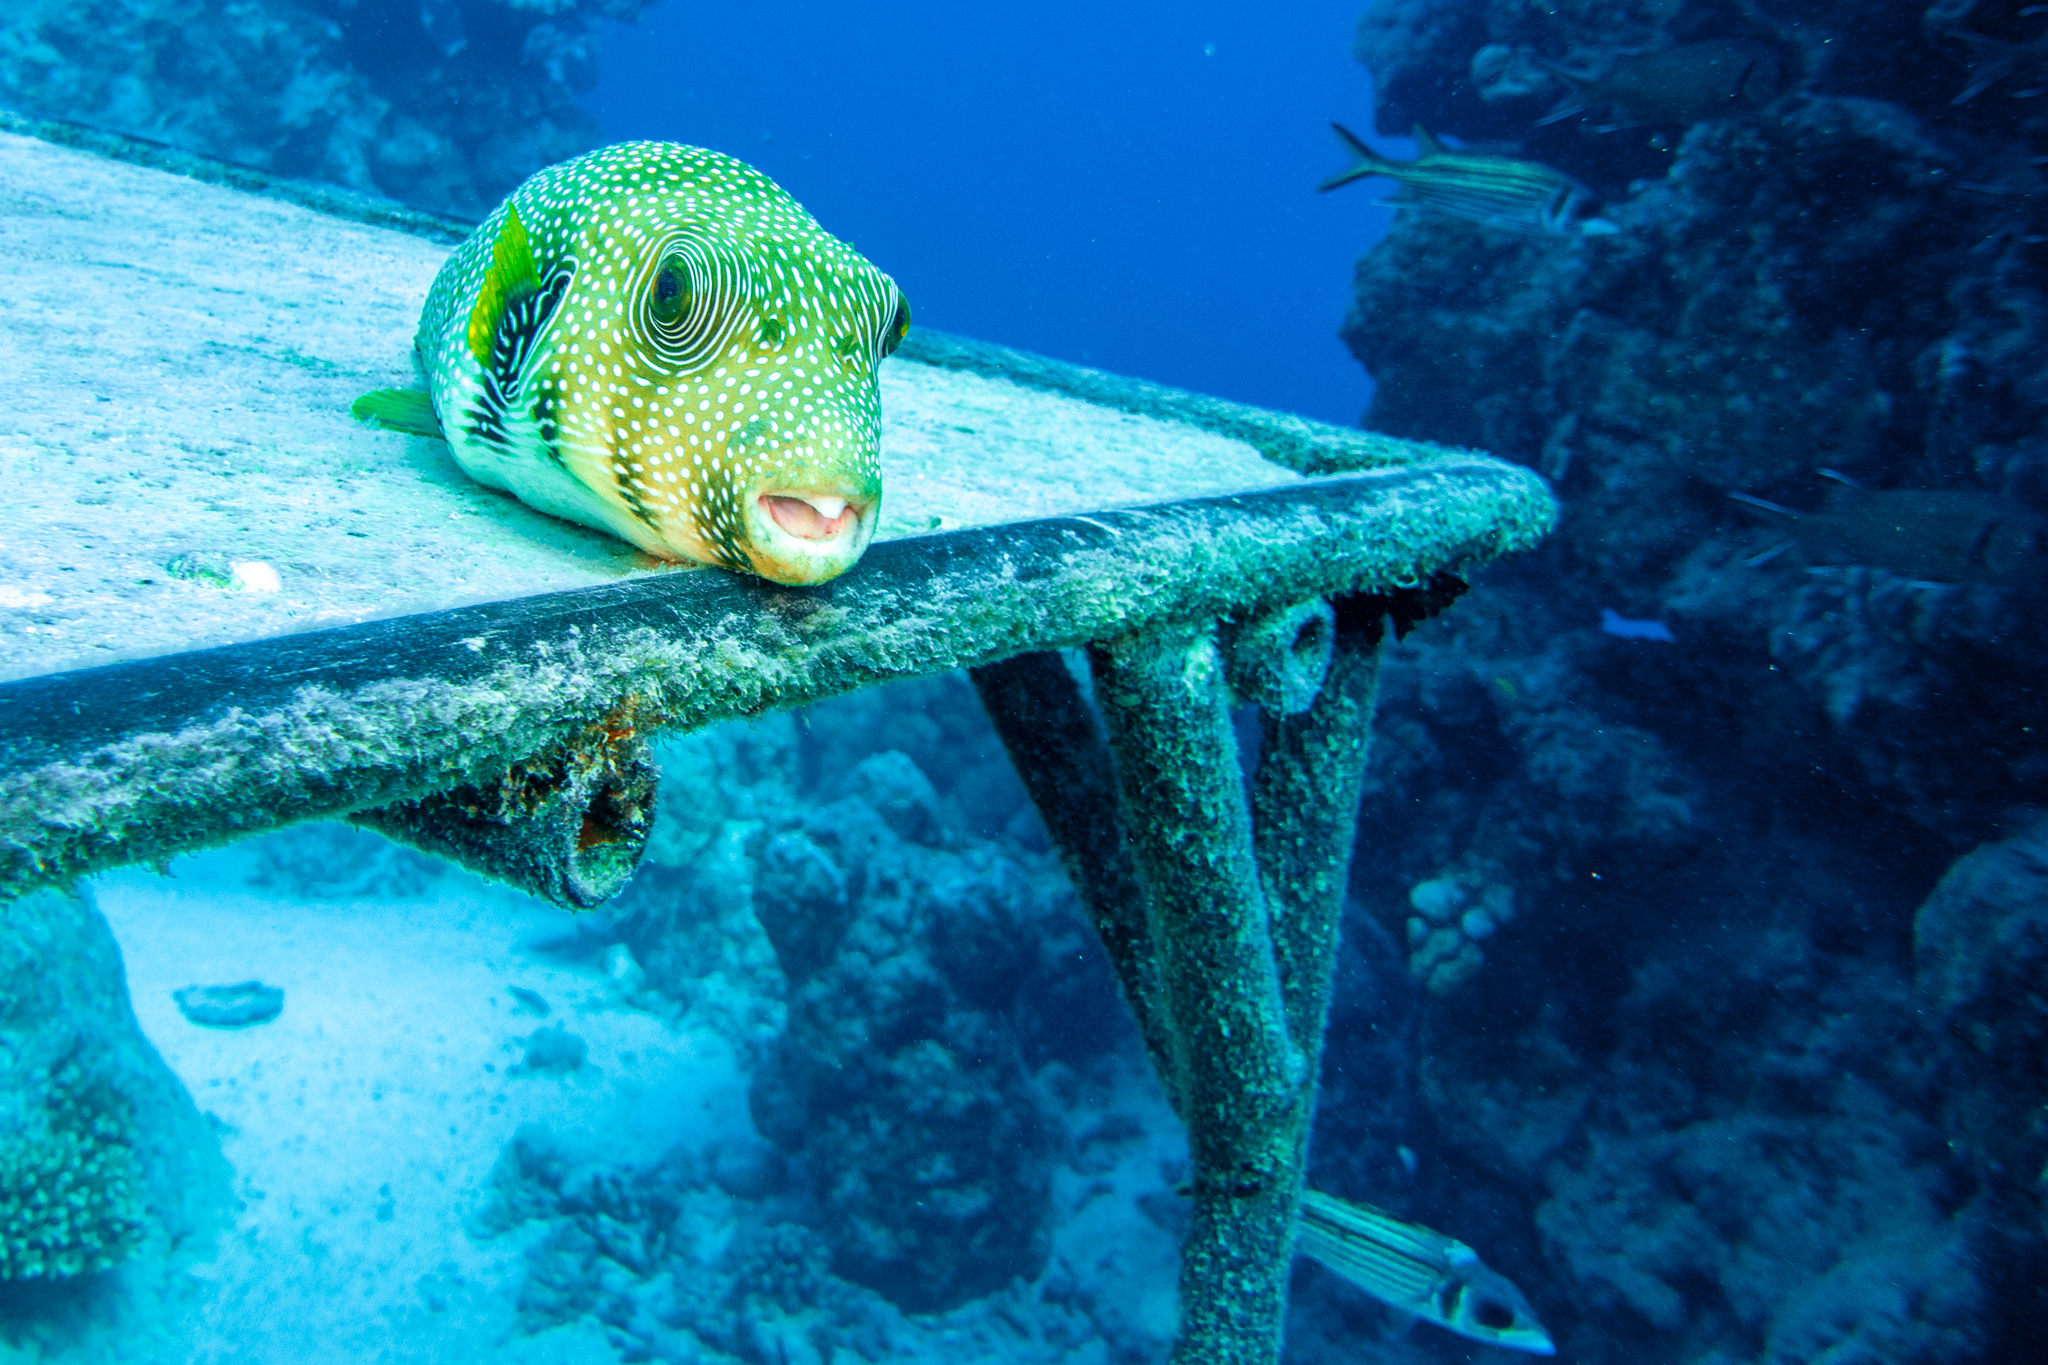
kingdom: Animalia
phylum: Chordata
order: Tetraodontiformes
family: Tetraodontidae
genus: Arothron
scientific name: Arothron hispidus
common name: Stripebelly puffer
